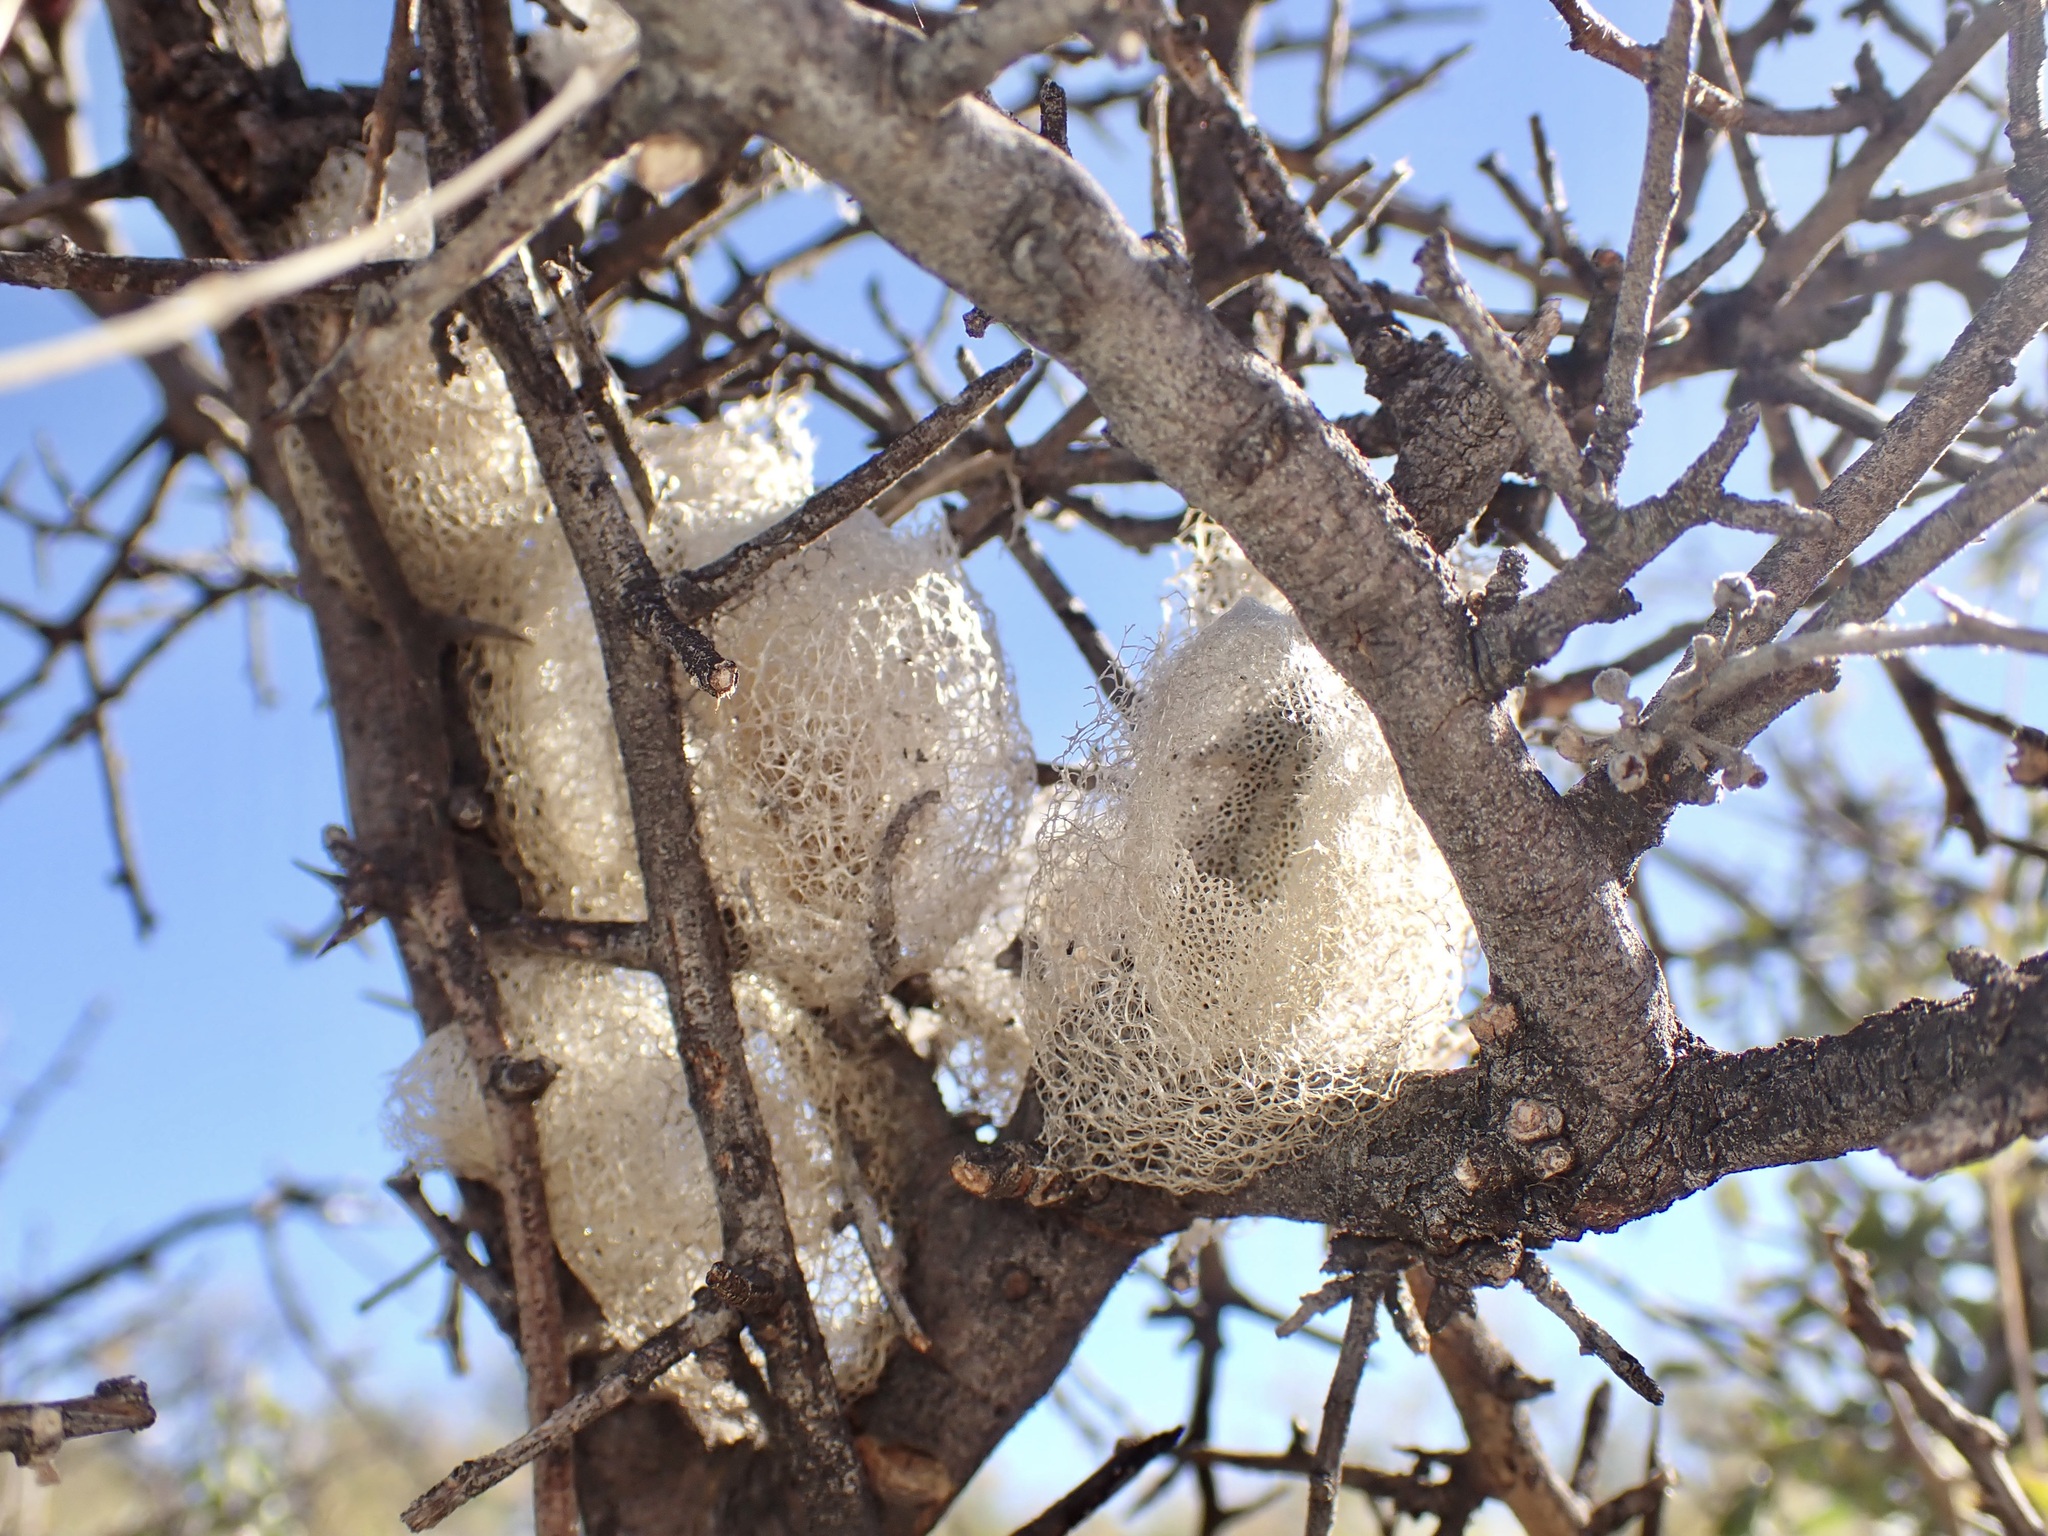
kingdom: Animalia
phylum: Arthropoda
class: Insecta
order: Lepidoptera
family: Saturniidae
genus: Saturnia
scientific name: Saturnia anona
